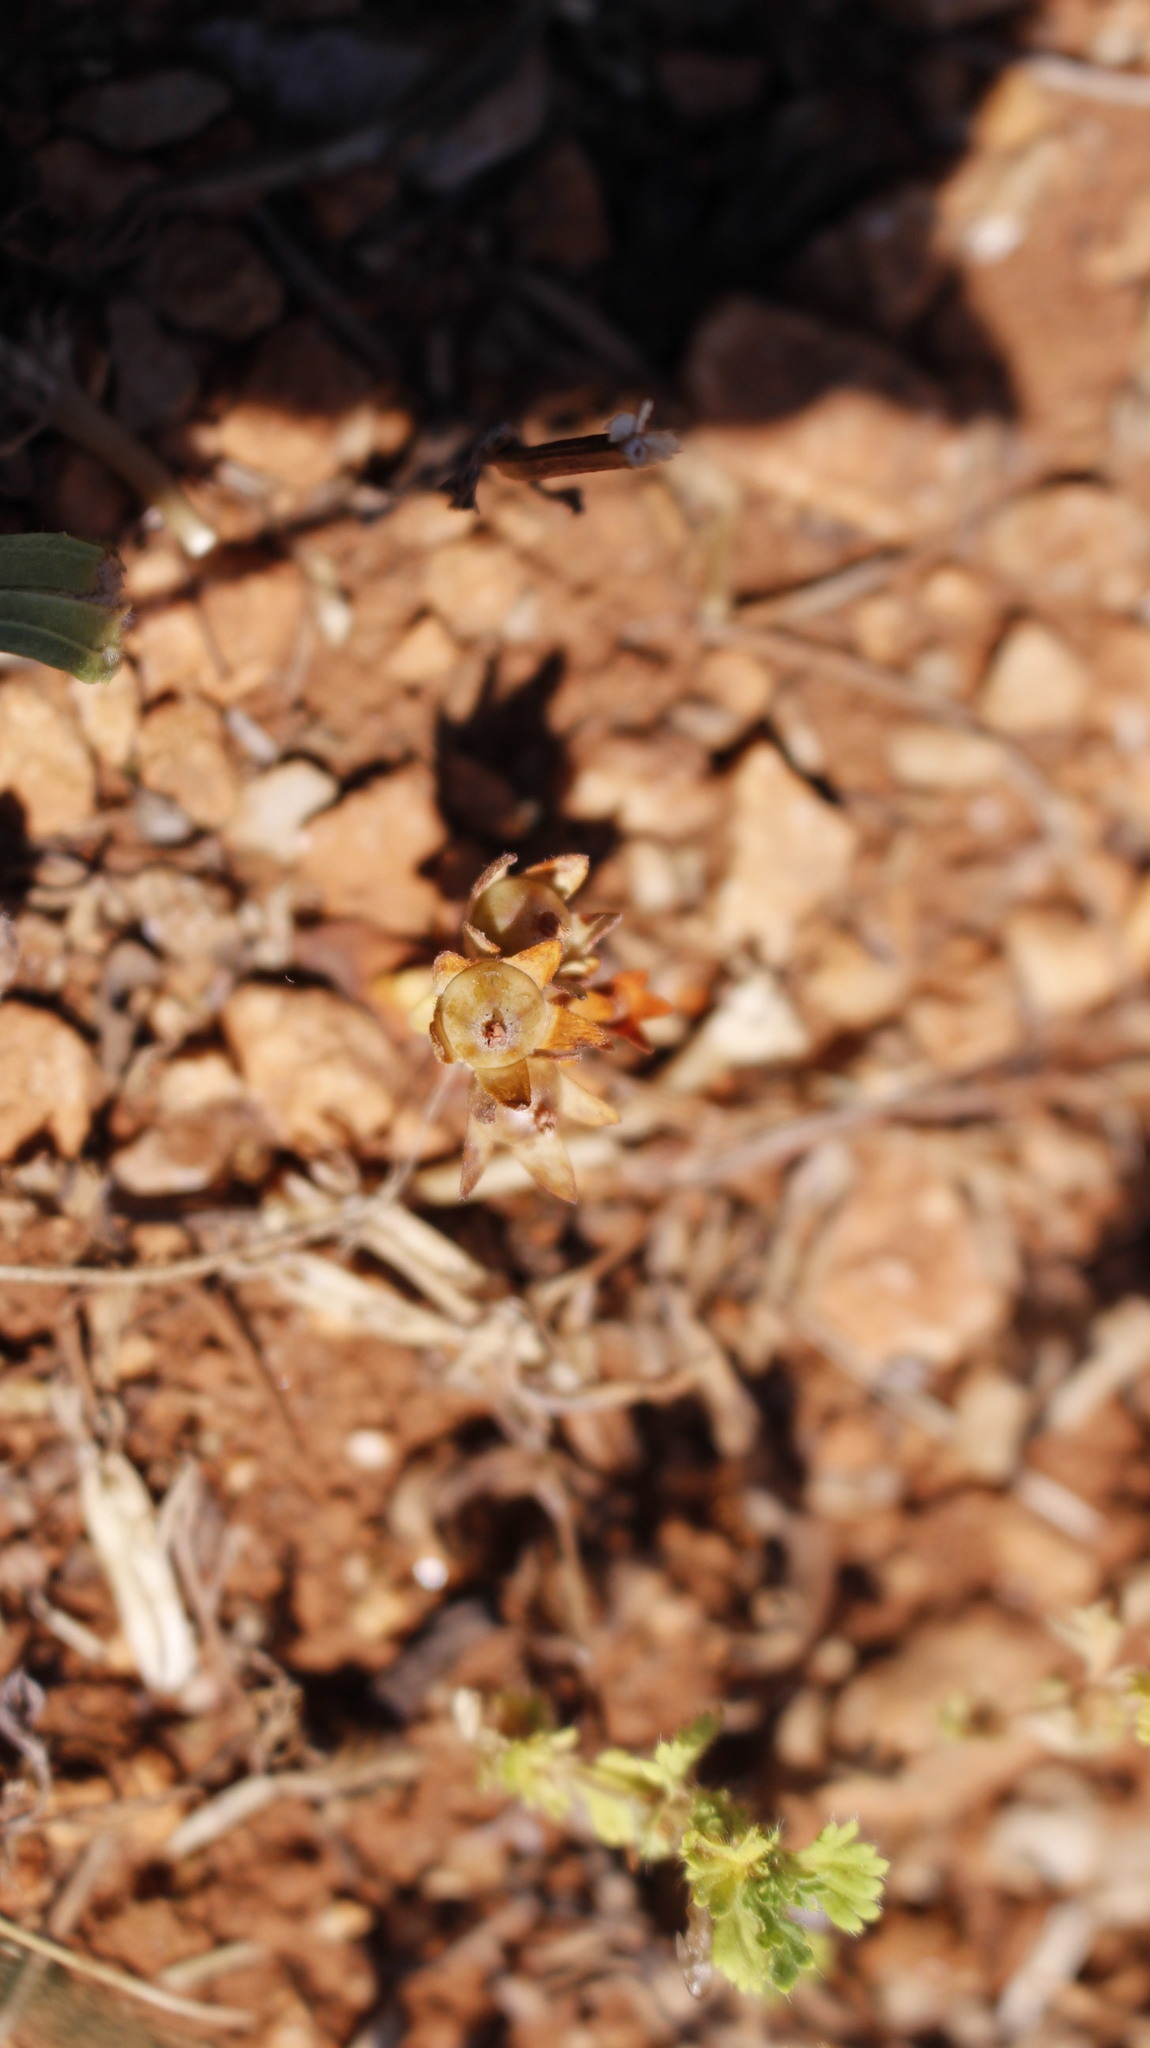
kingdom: Plantae
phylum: Tracheophyta
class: Magnoliopsida
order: Ericales
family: Primulaceae
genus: Androsace
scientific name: Androsace maxima
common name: Annual androsace
